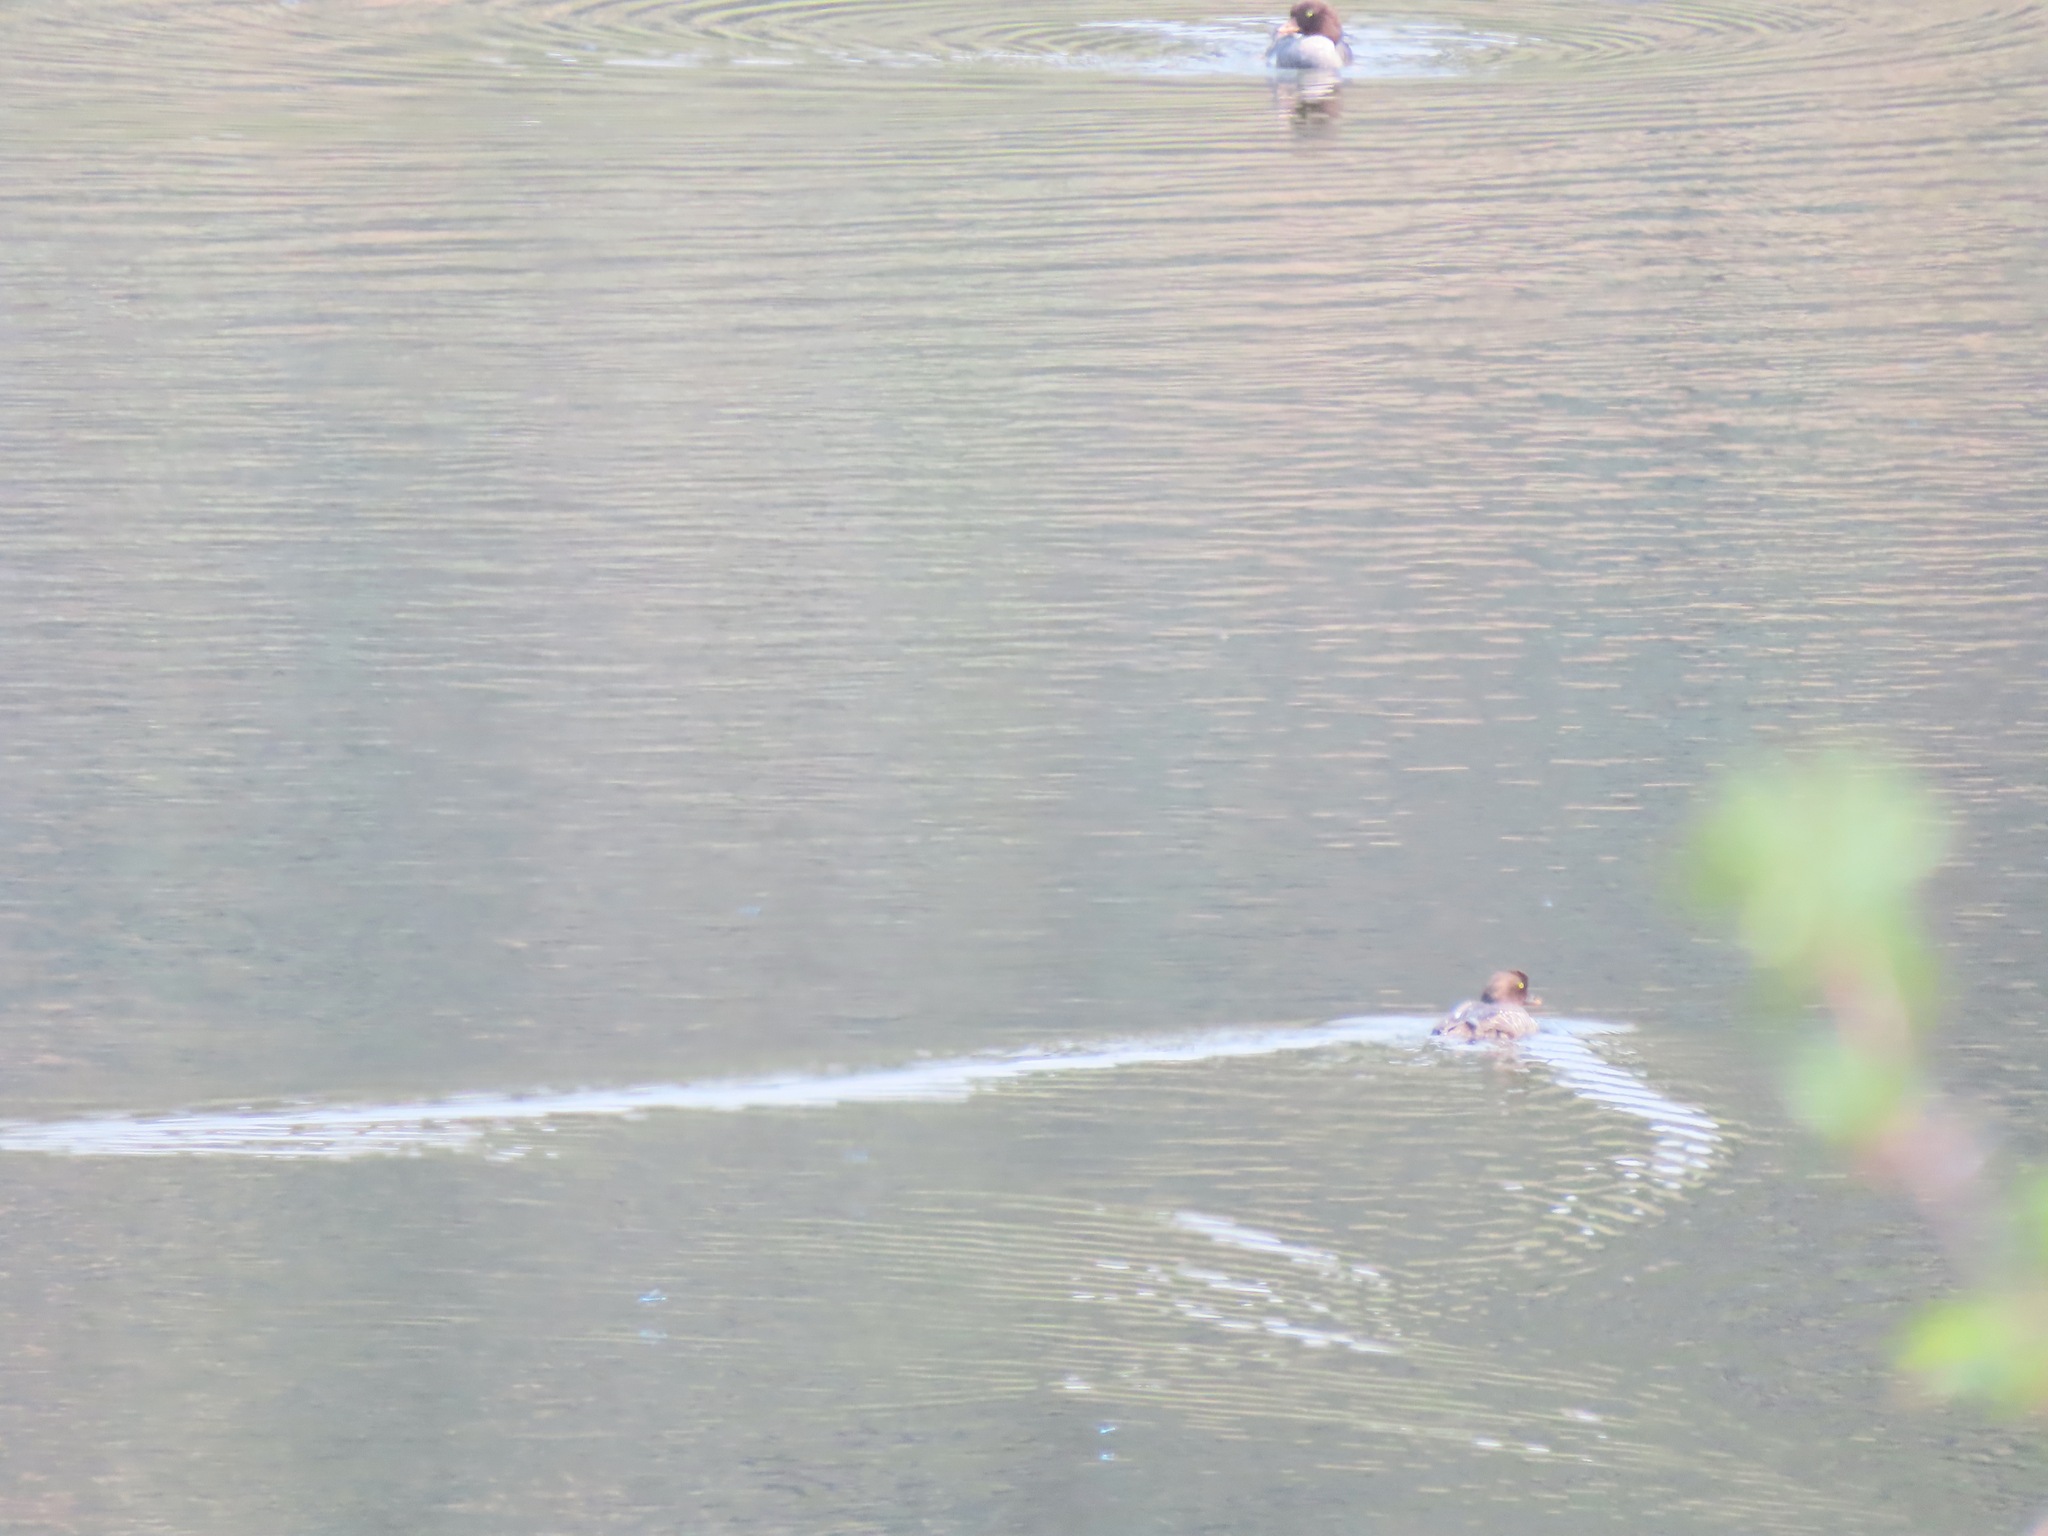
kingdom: Animalia
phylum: Chordata
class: Aves
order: Anseriformes
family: Anatidae
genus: Bucephala
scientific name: Bucephala islandica
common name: Barrow's goldeneye
